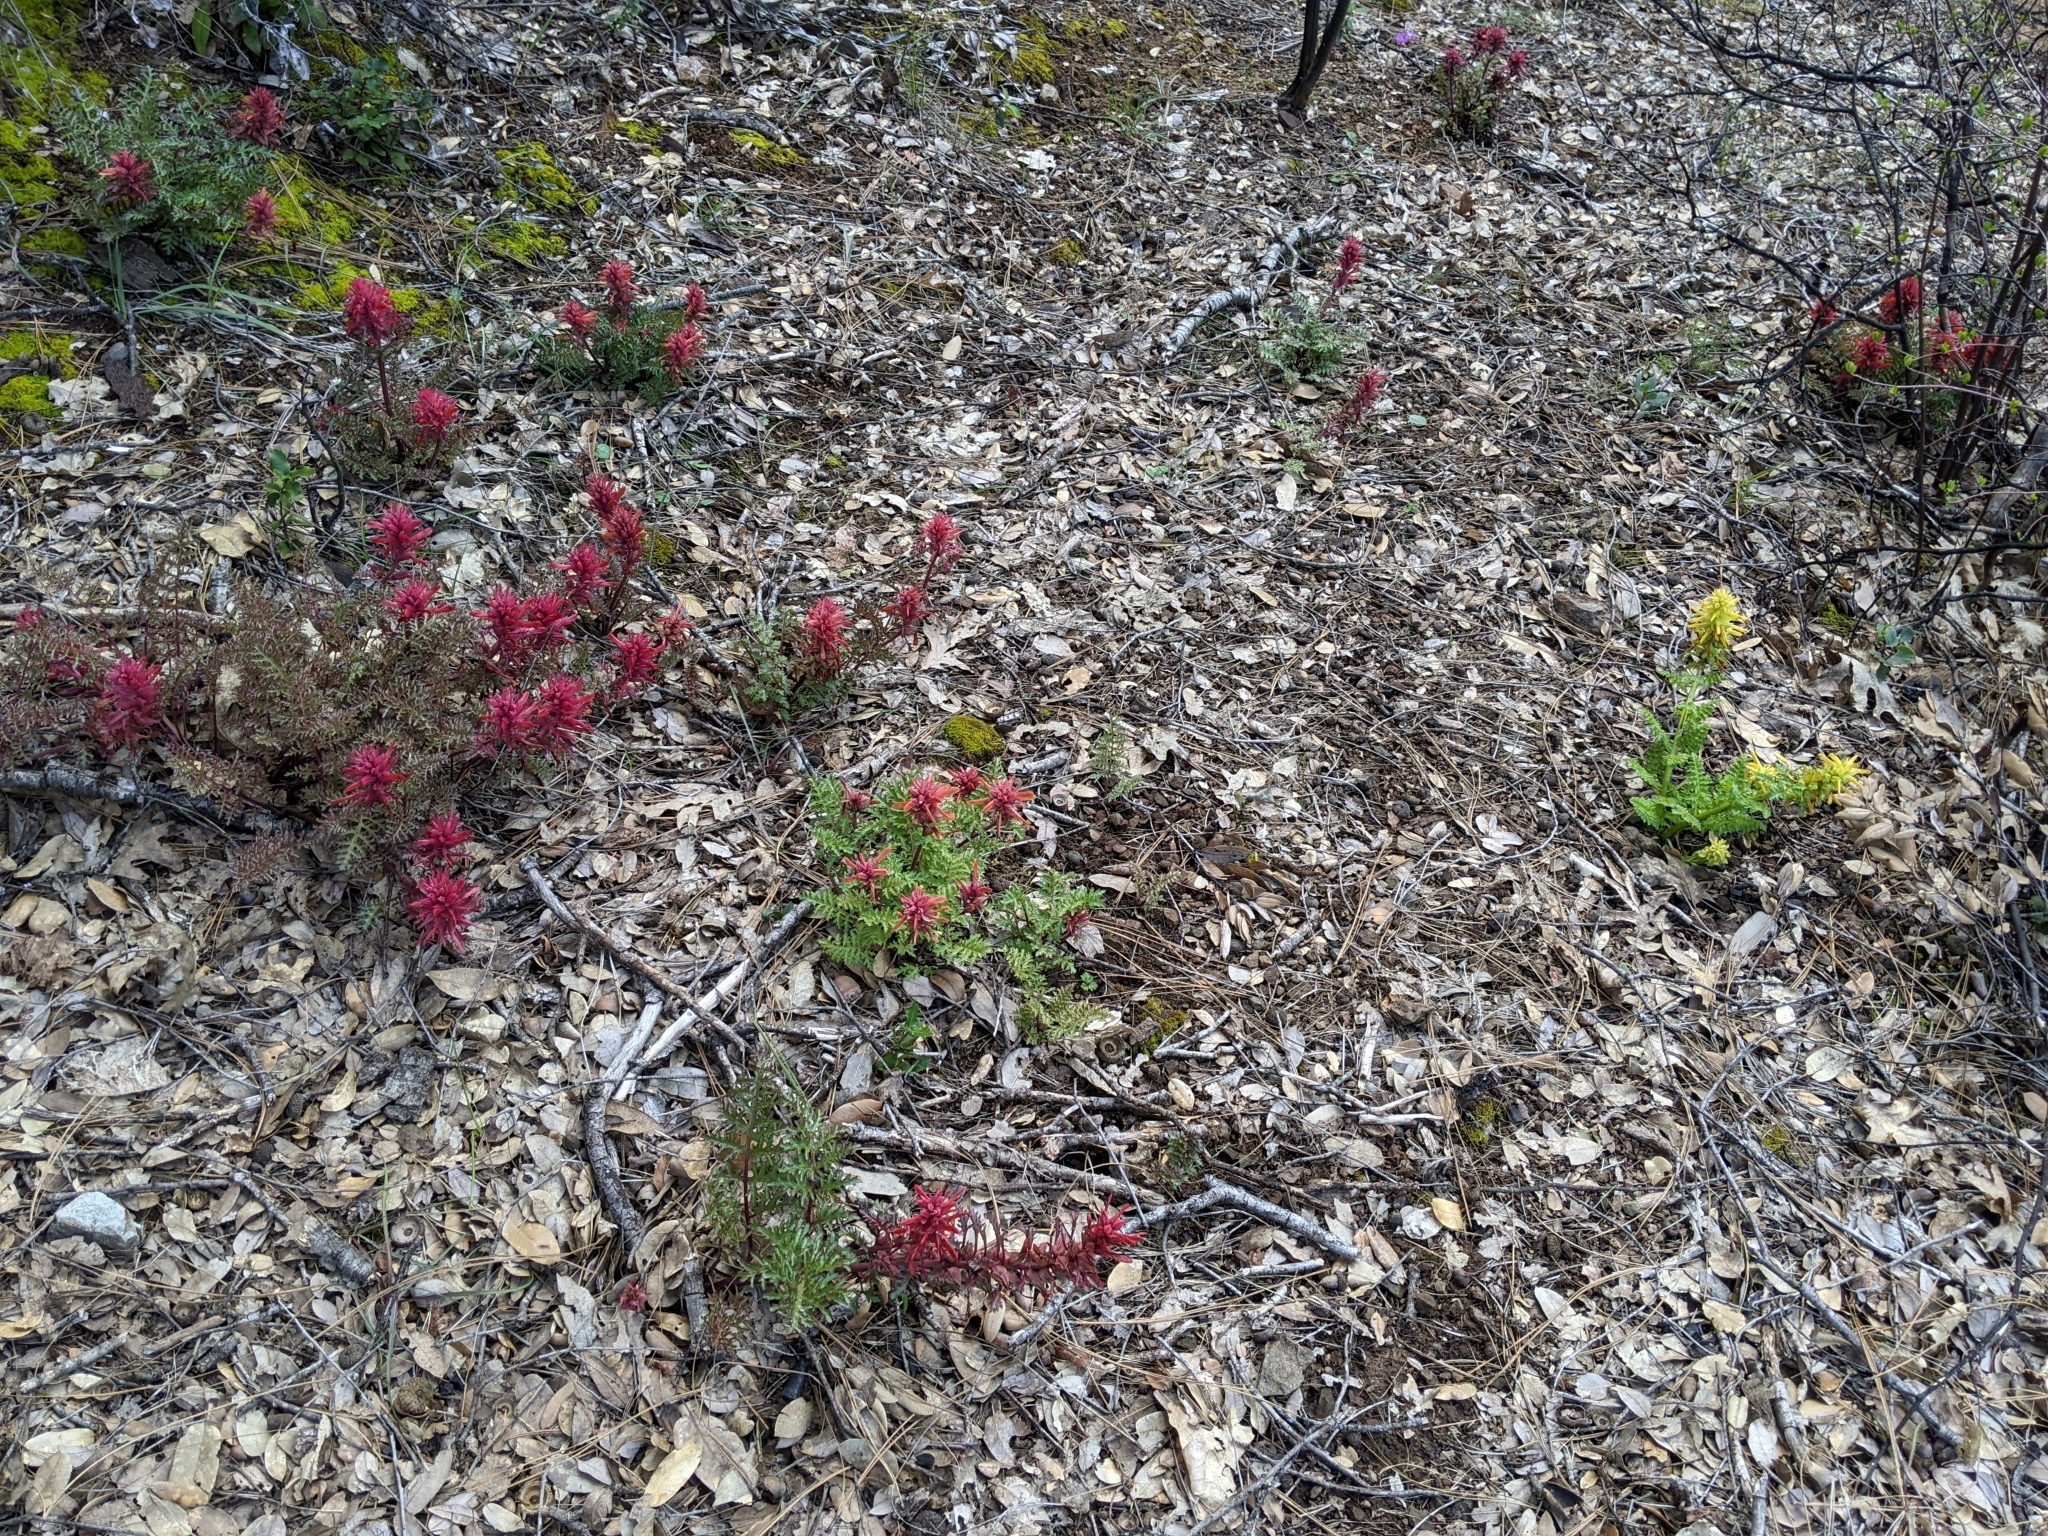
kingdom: Plantae
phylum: Tracheophyta
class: Magnoliopsida
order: Lamiales
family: Orobanchaceae
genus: Pedicularis
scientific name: Pedicularis densiflora
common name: Indian warrior
